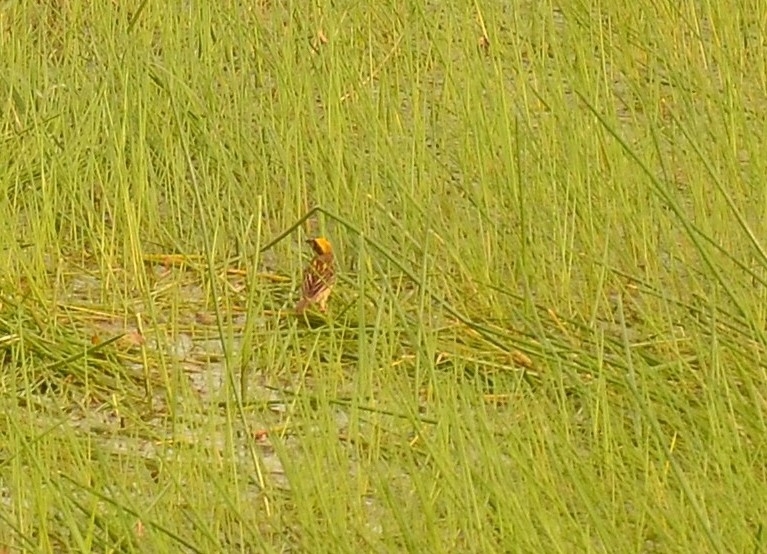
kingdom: Animalia
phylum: Chordata
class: Aves
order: Passeriformes
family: Ploceidae
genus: Ploceus
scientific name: Ploceus philippinus
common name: Baya weaver
